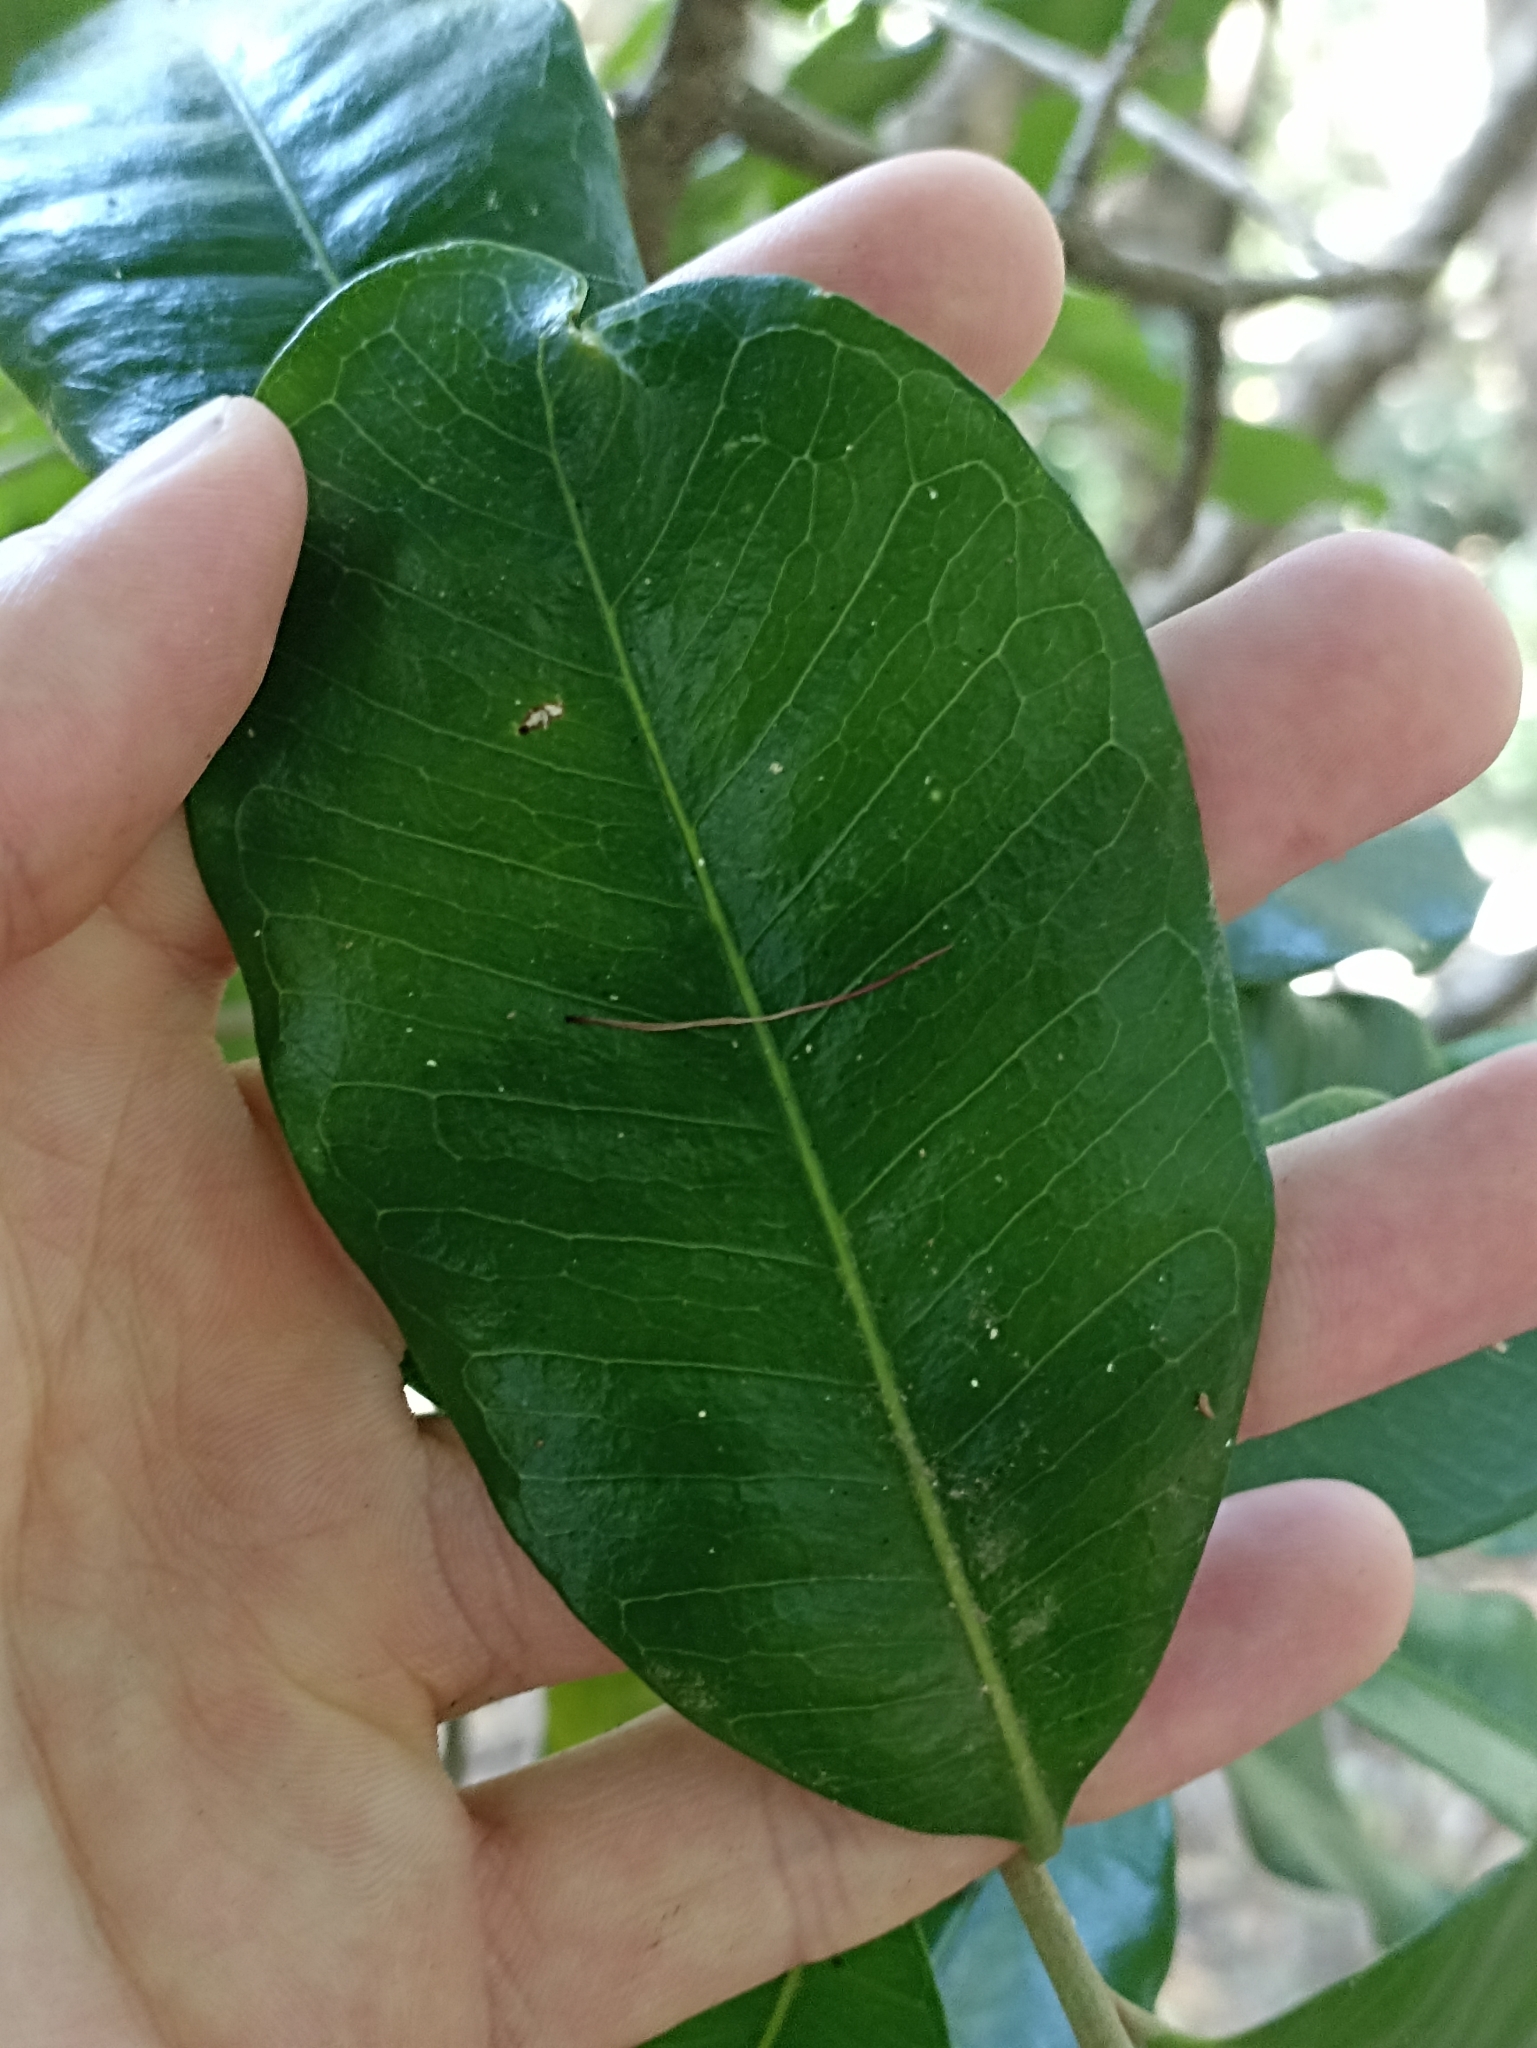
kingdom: Plantae
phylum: Tracheophyta
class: Magnoliopsida
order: Ericales
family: Sapotaceae
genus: Planchonella
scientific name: Planchonella costata
